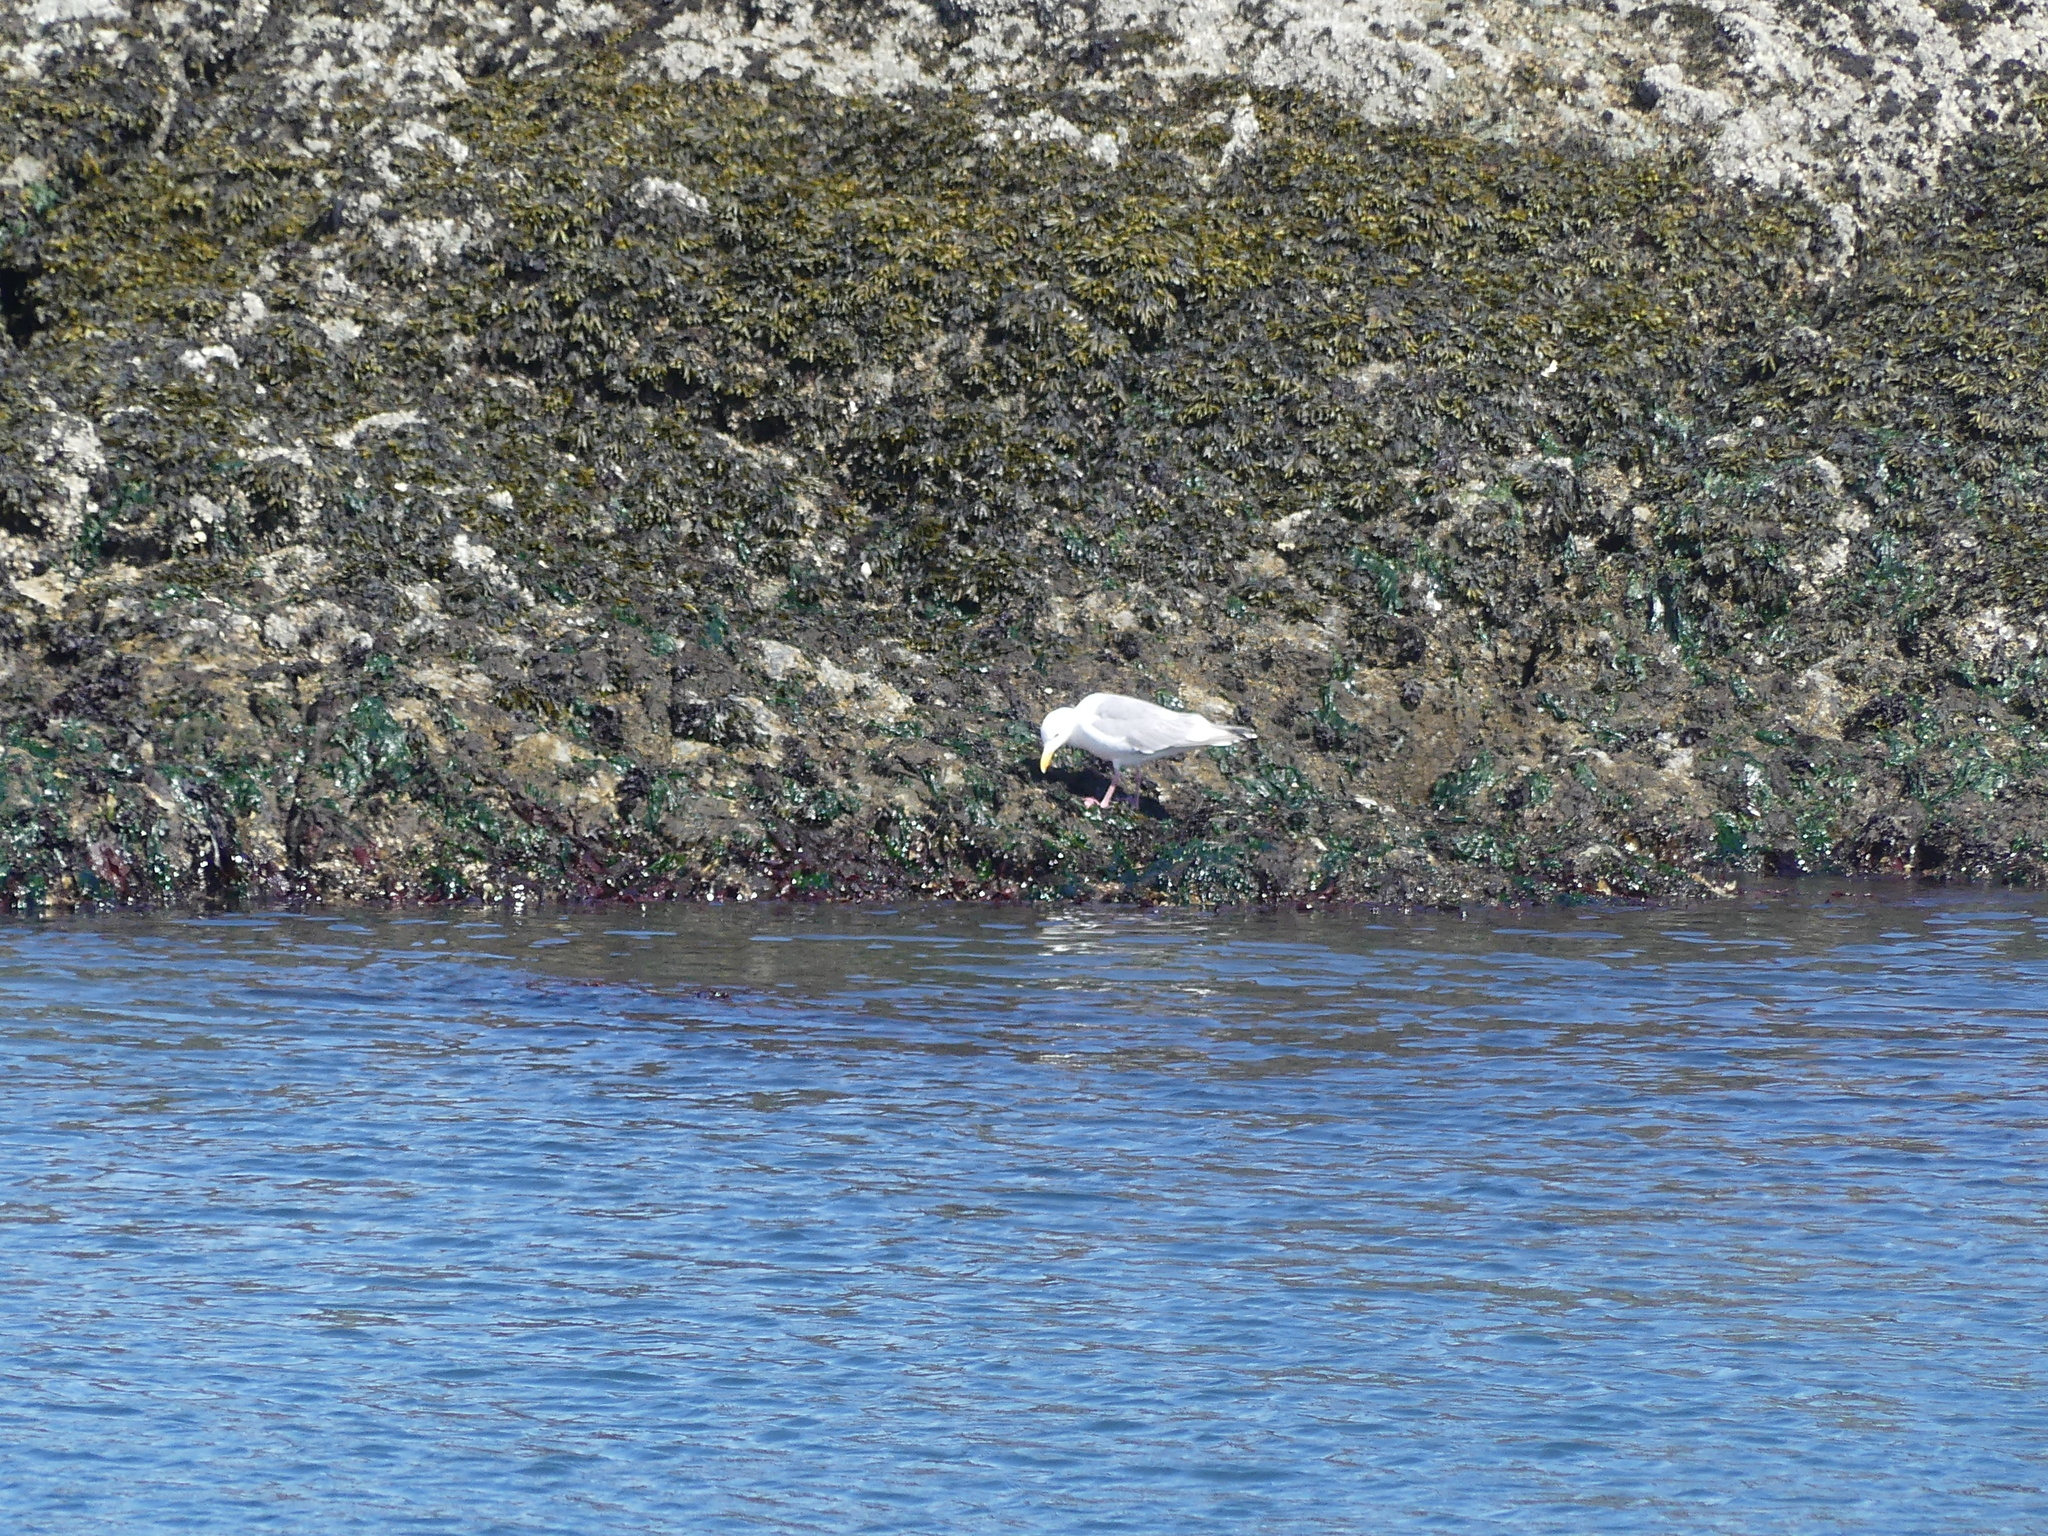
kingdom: Animalia
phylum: Chordata
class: Aves
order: Charadriiformes
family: Laridae
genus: Larus
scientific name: Larus glaucescens
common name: Glaucous-winged gull
